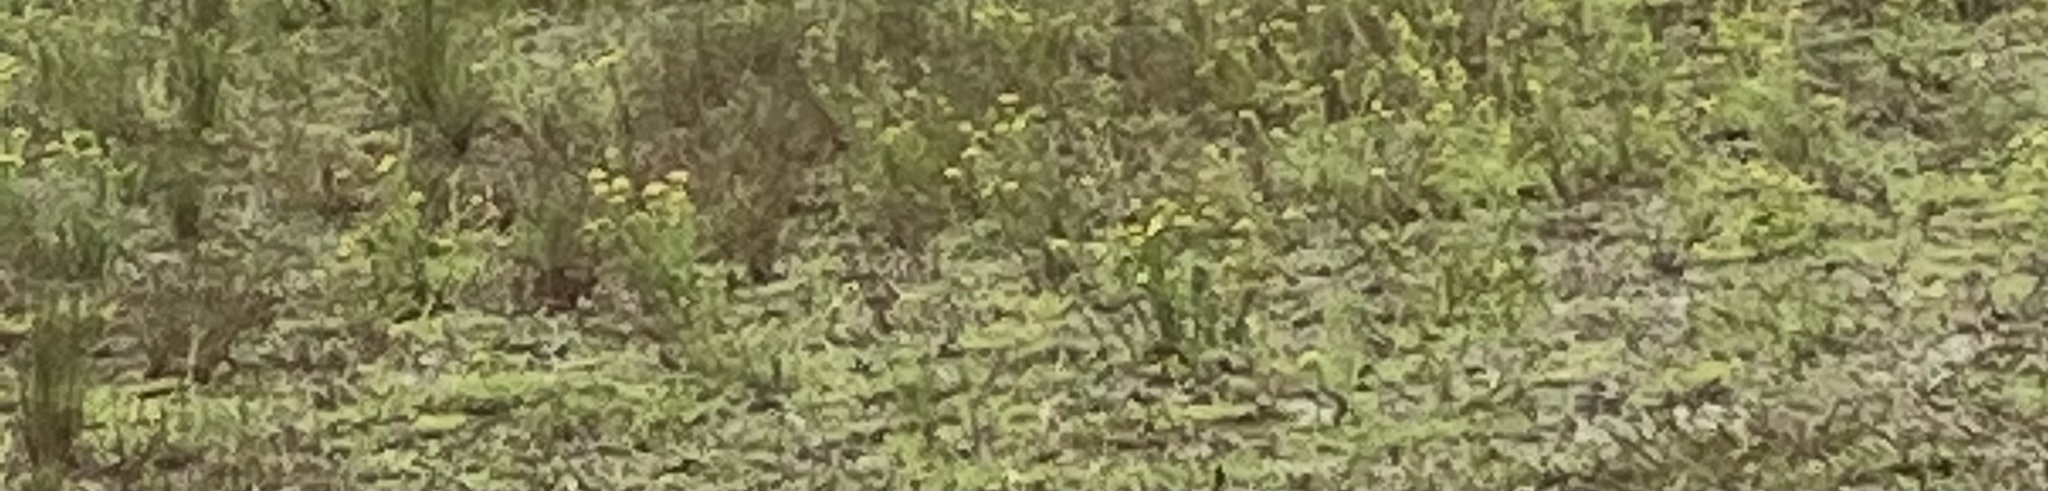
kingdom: Plantae
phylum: Tracheophyta
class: Magnoliopsida
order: Boraginales
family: Heliotropiaceae
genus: Euploca
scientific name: Euploca polyphylla
